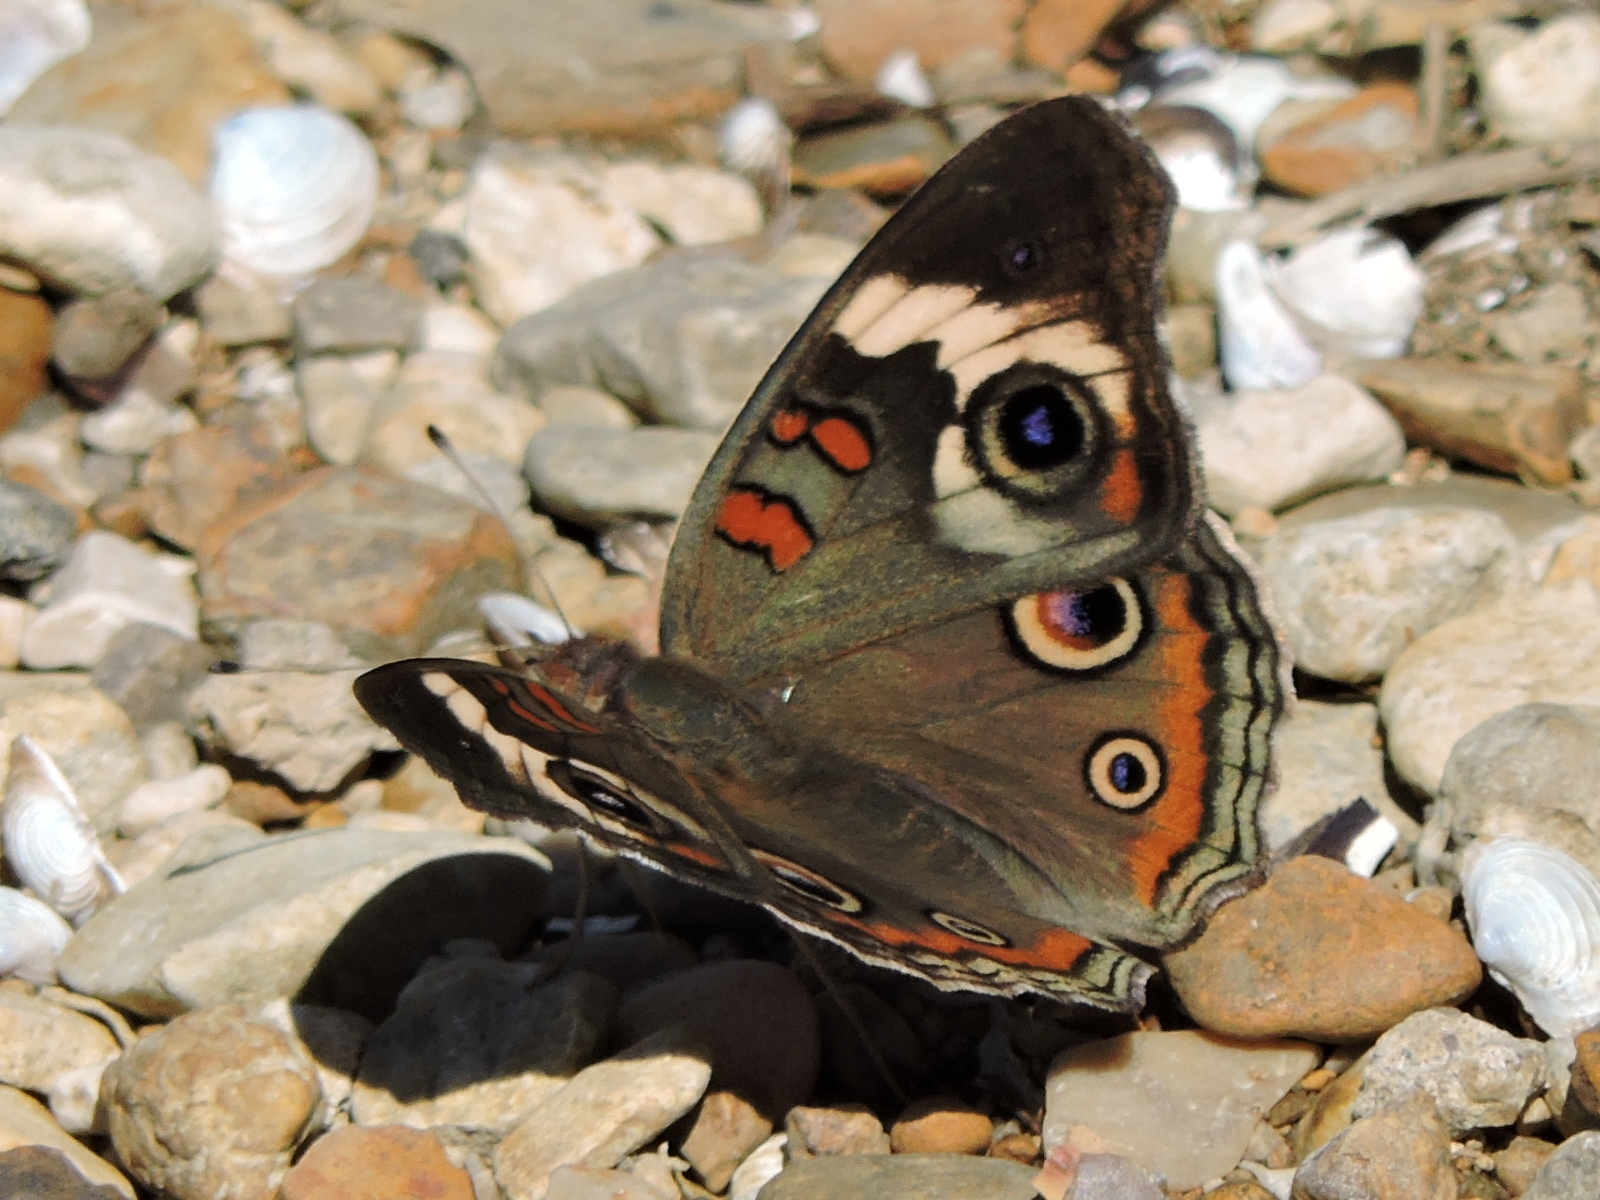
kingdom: Animalia
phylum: Arthropoda
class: Insecta
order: Lepidoptera
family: Nymphalidae
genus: Junonia
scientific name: Junonia coenia
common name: Common buckeye
